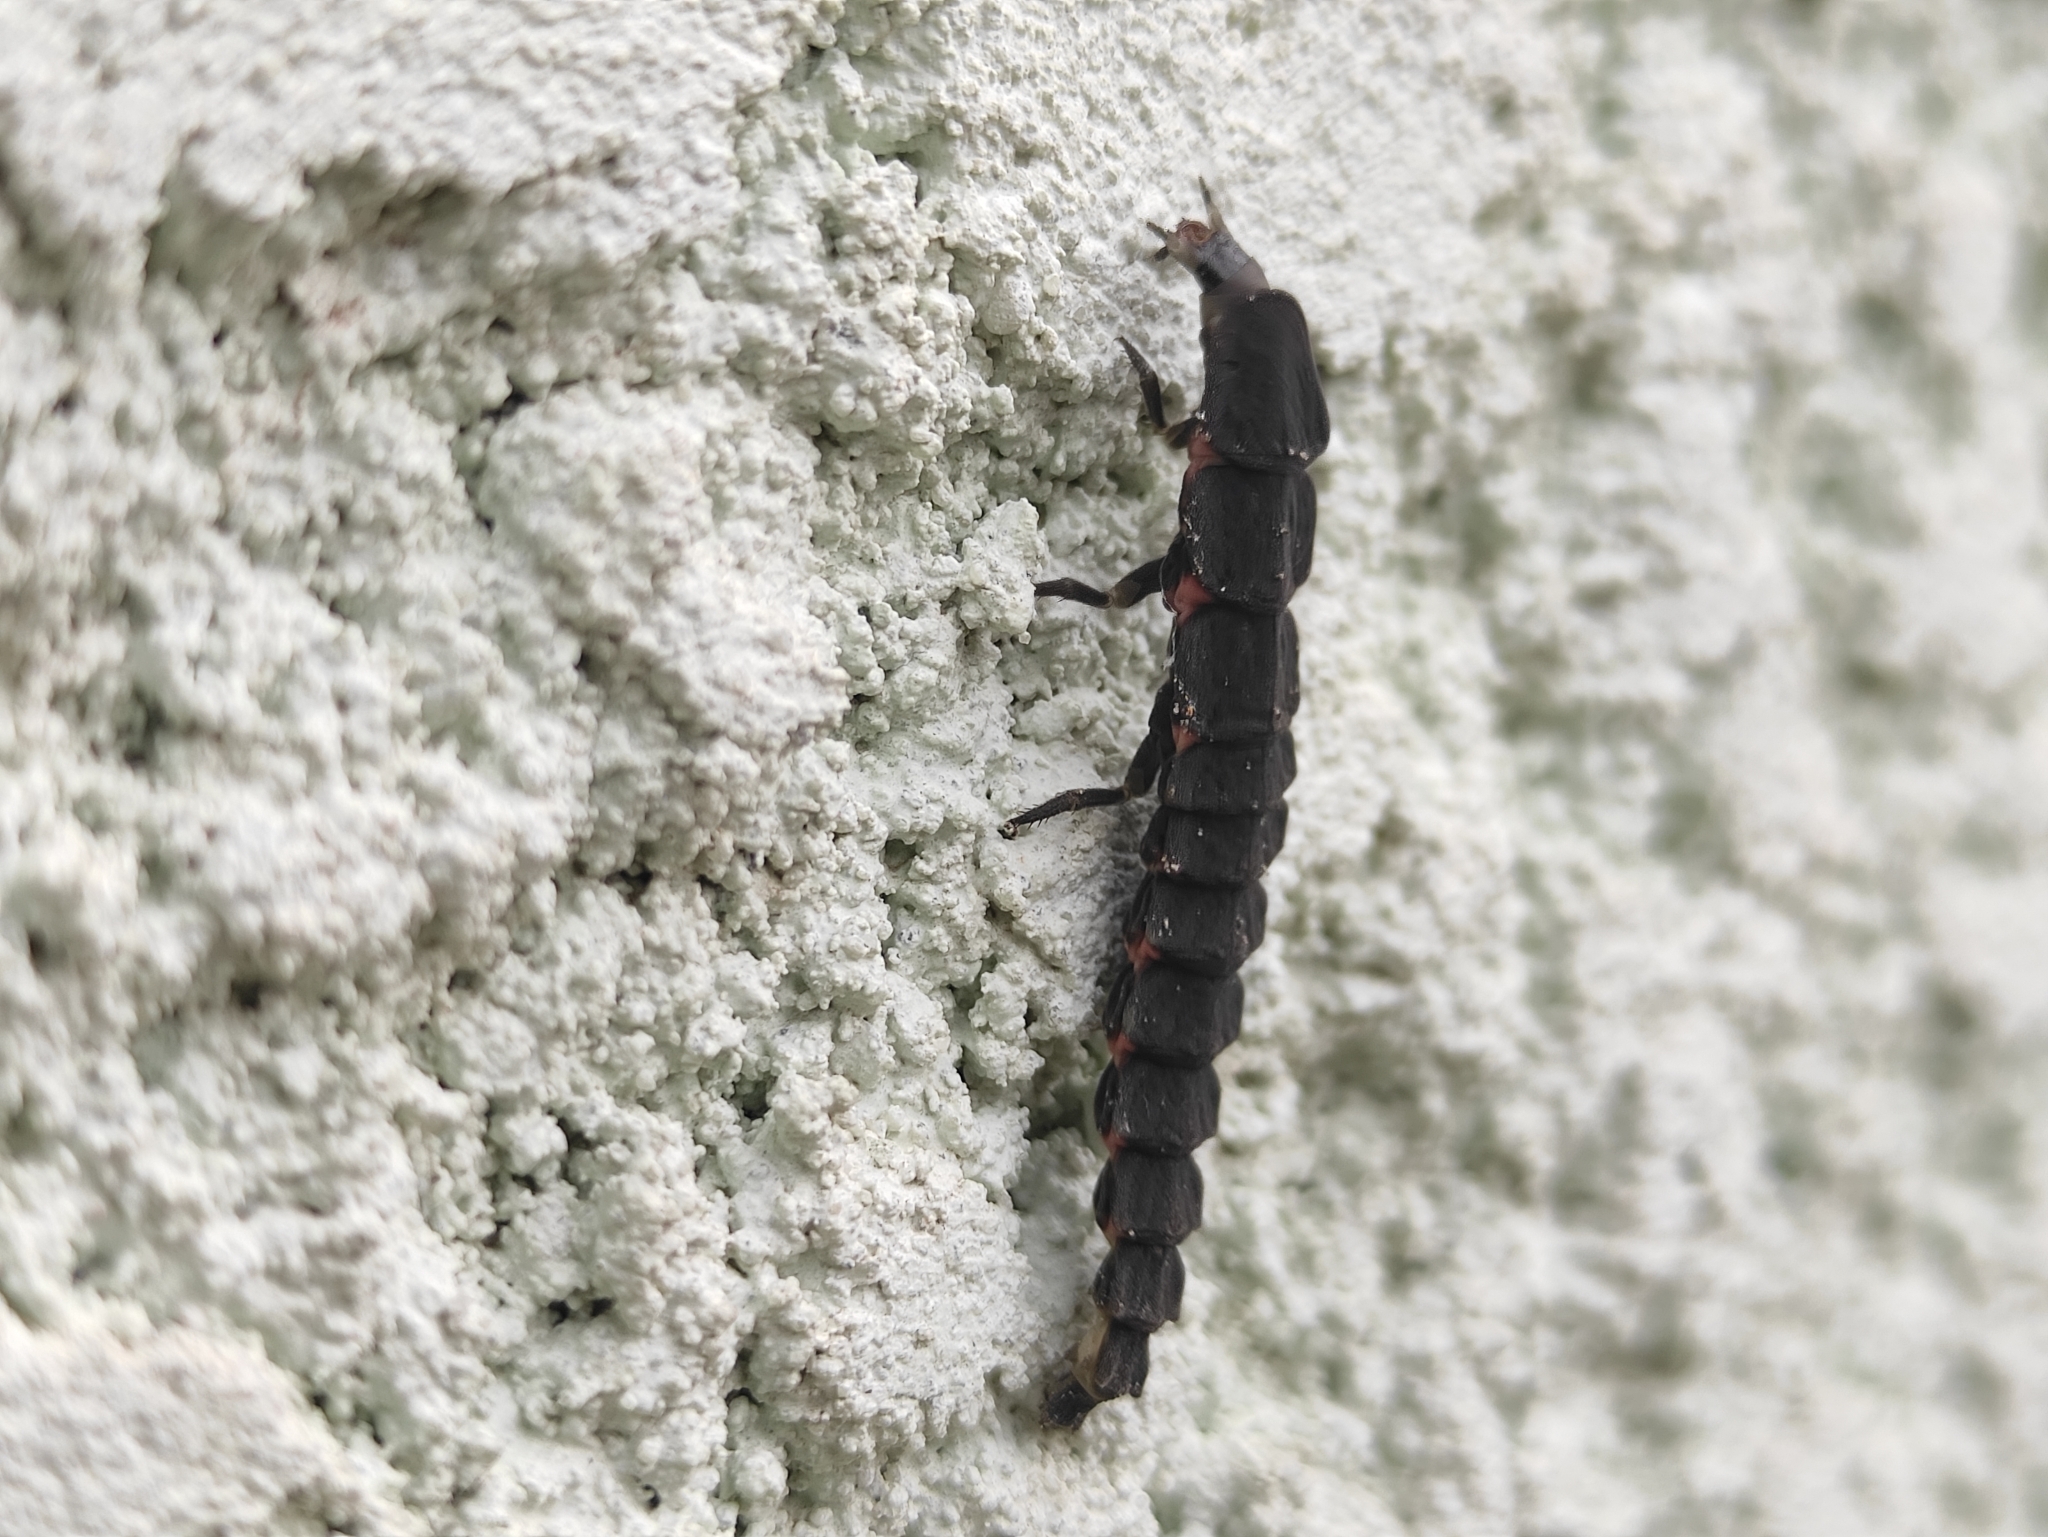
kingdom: Animalia
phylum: Arthropoda
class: Insecta
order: Coleoptera
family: Lampyridae
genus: Nyctophila
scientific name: Nyctophila reichii
